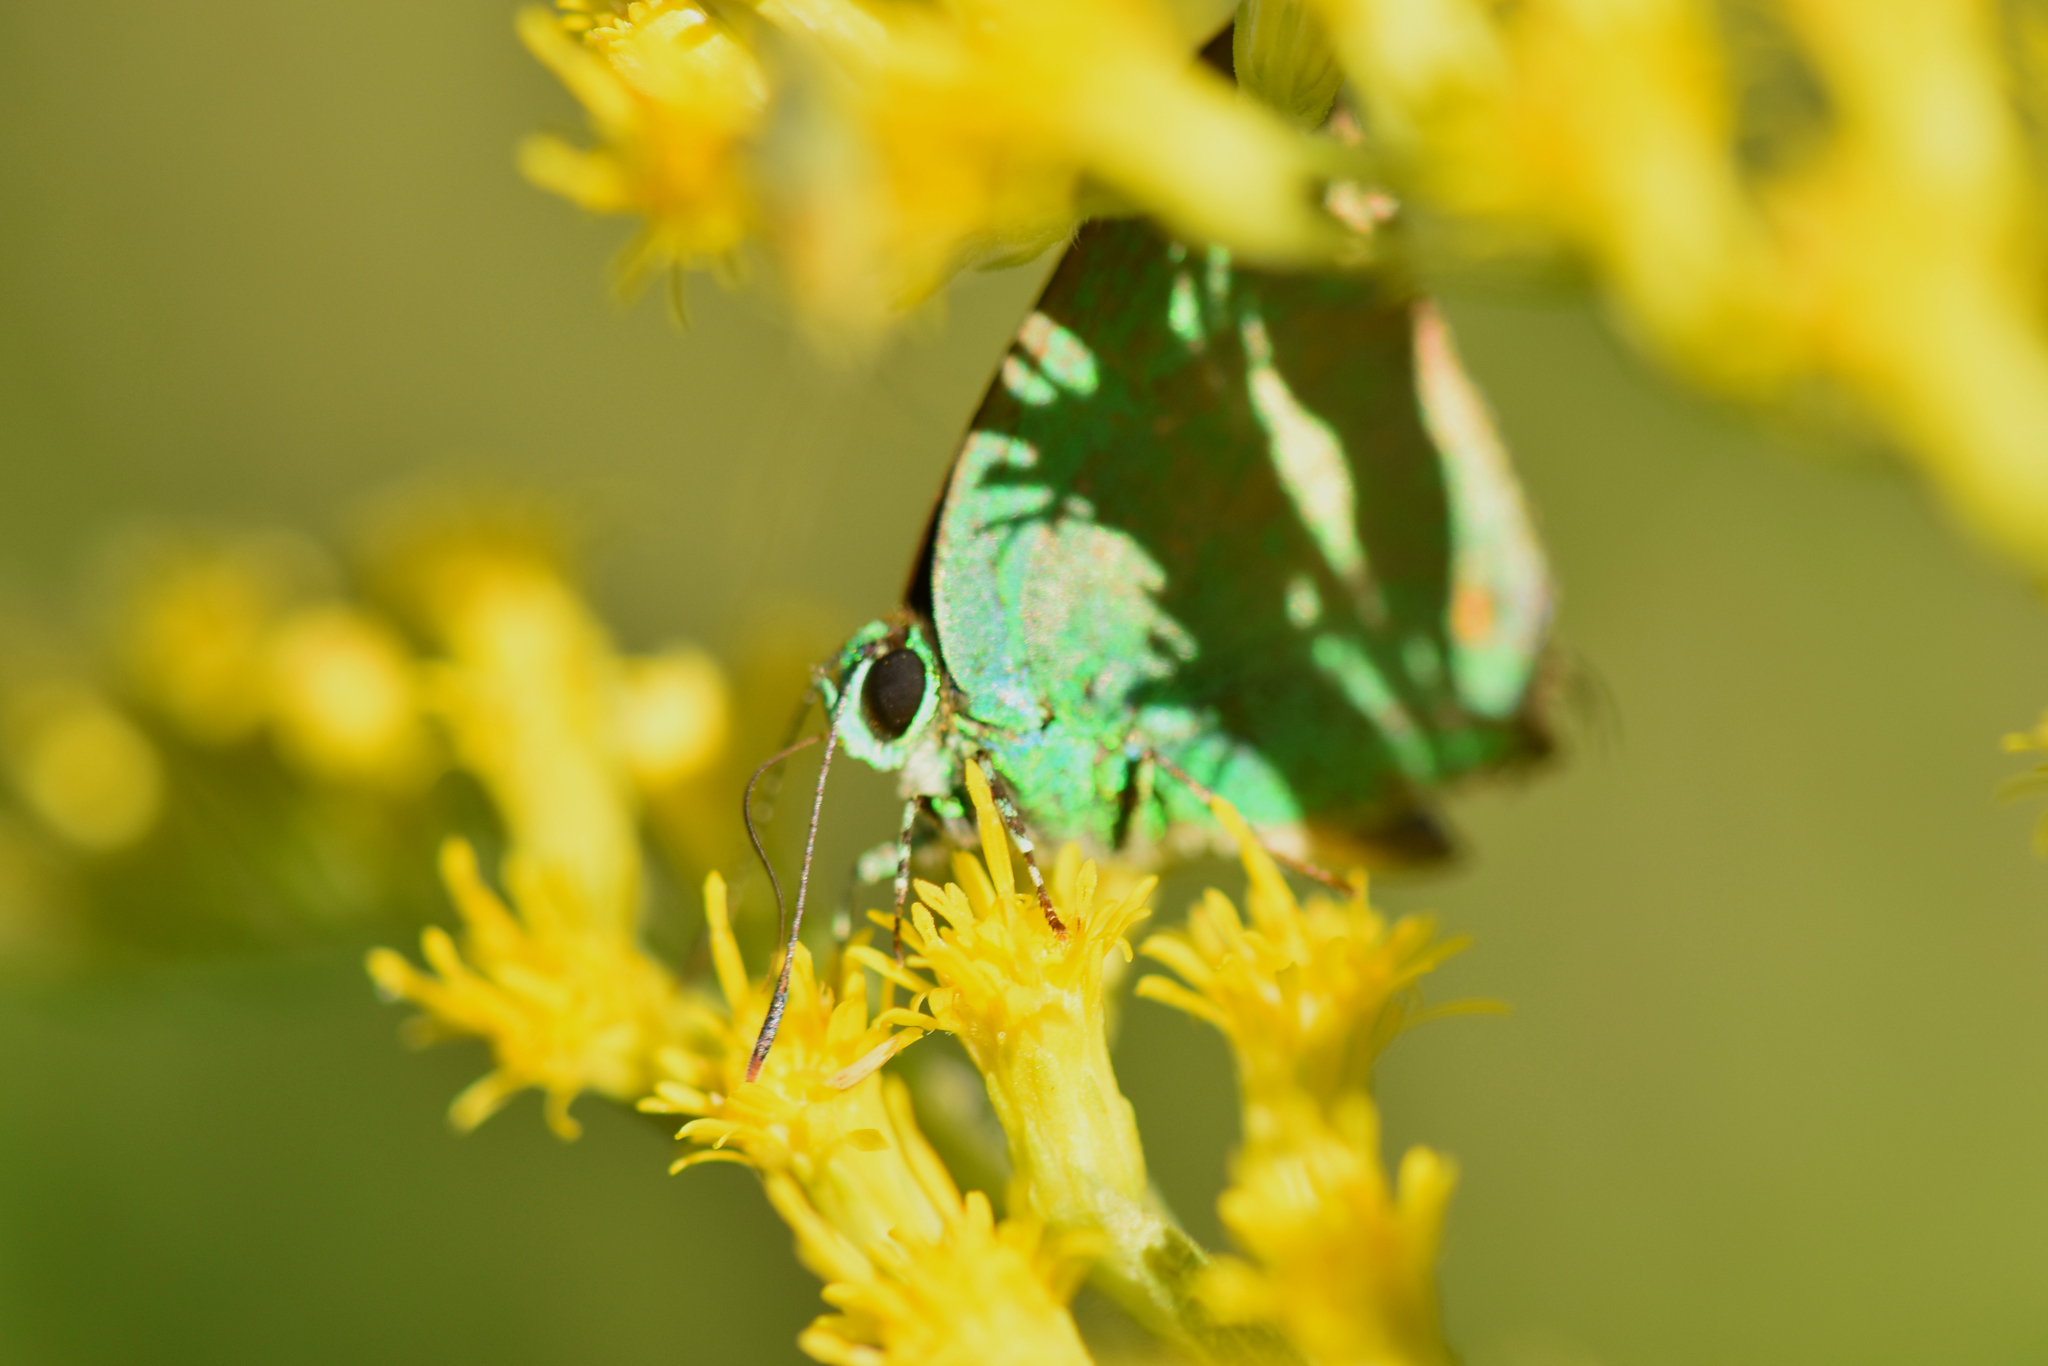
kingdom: Animalia
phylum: Arthropoda
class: Insecta
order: Lepidoptera
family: Lycaenidae
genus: Chalybs
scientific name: Chalybs janias
